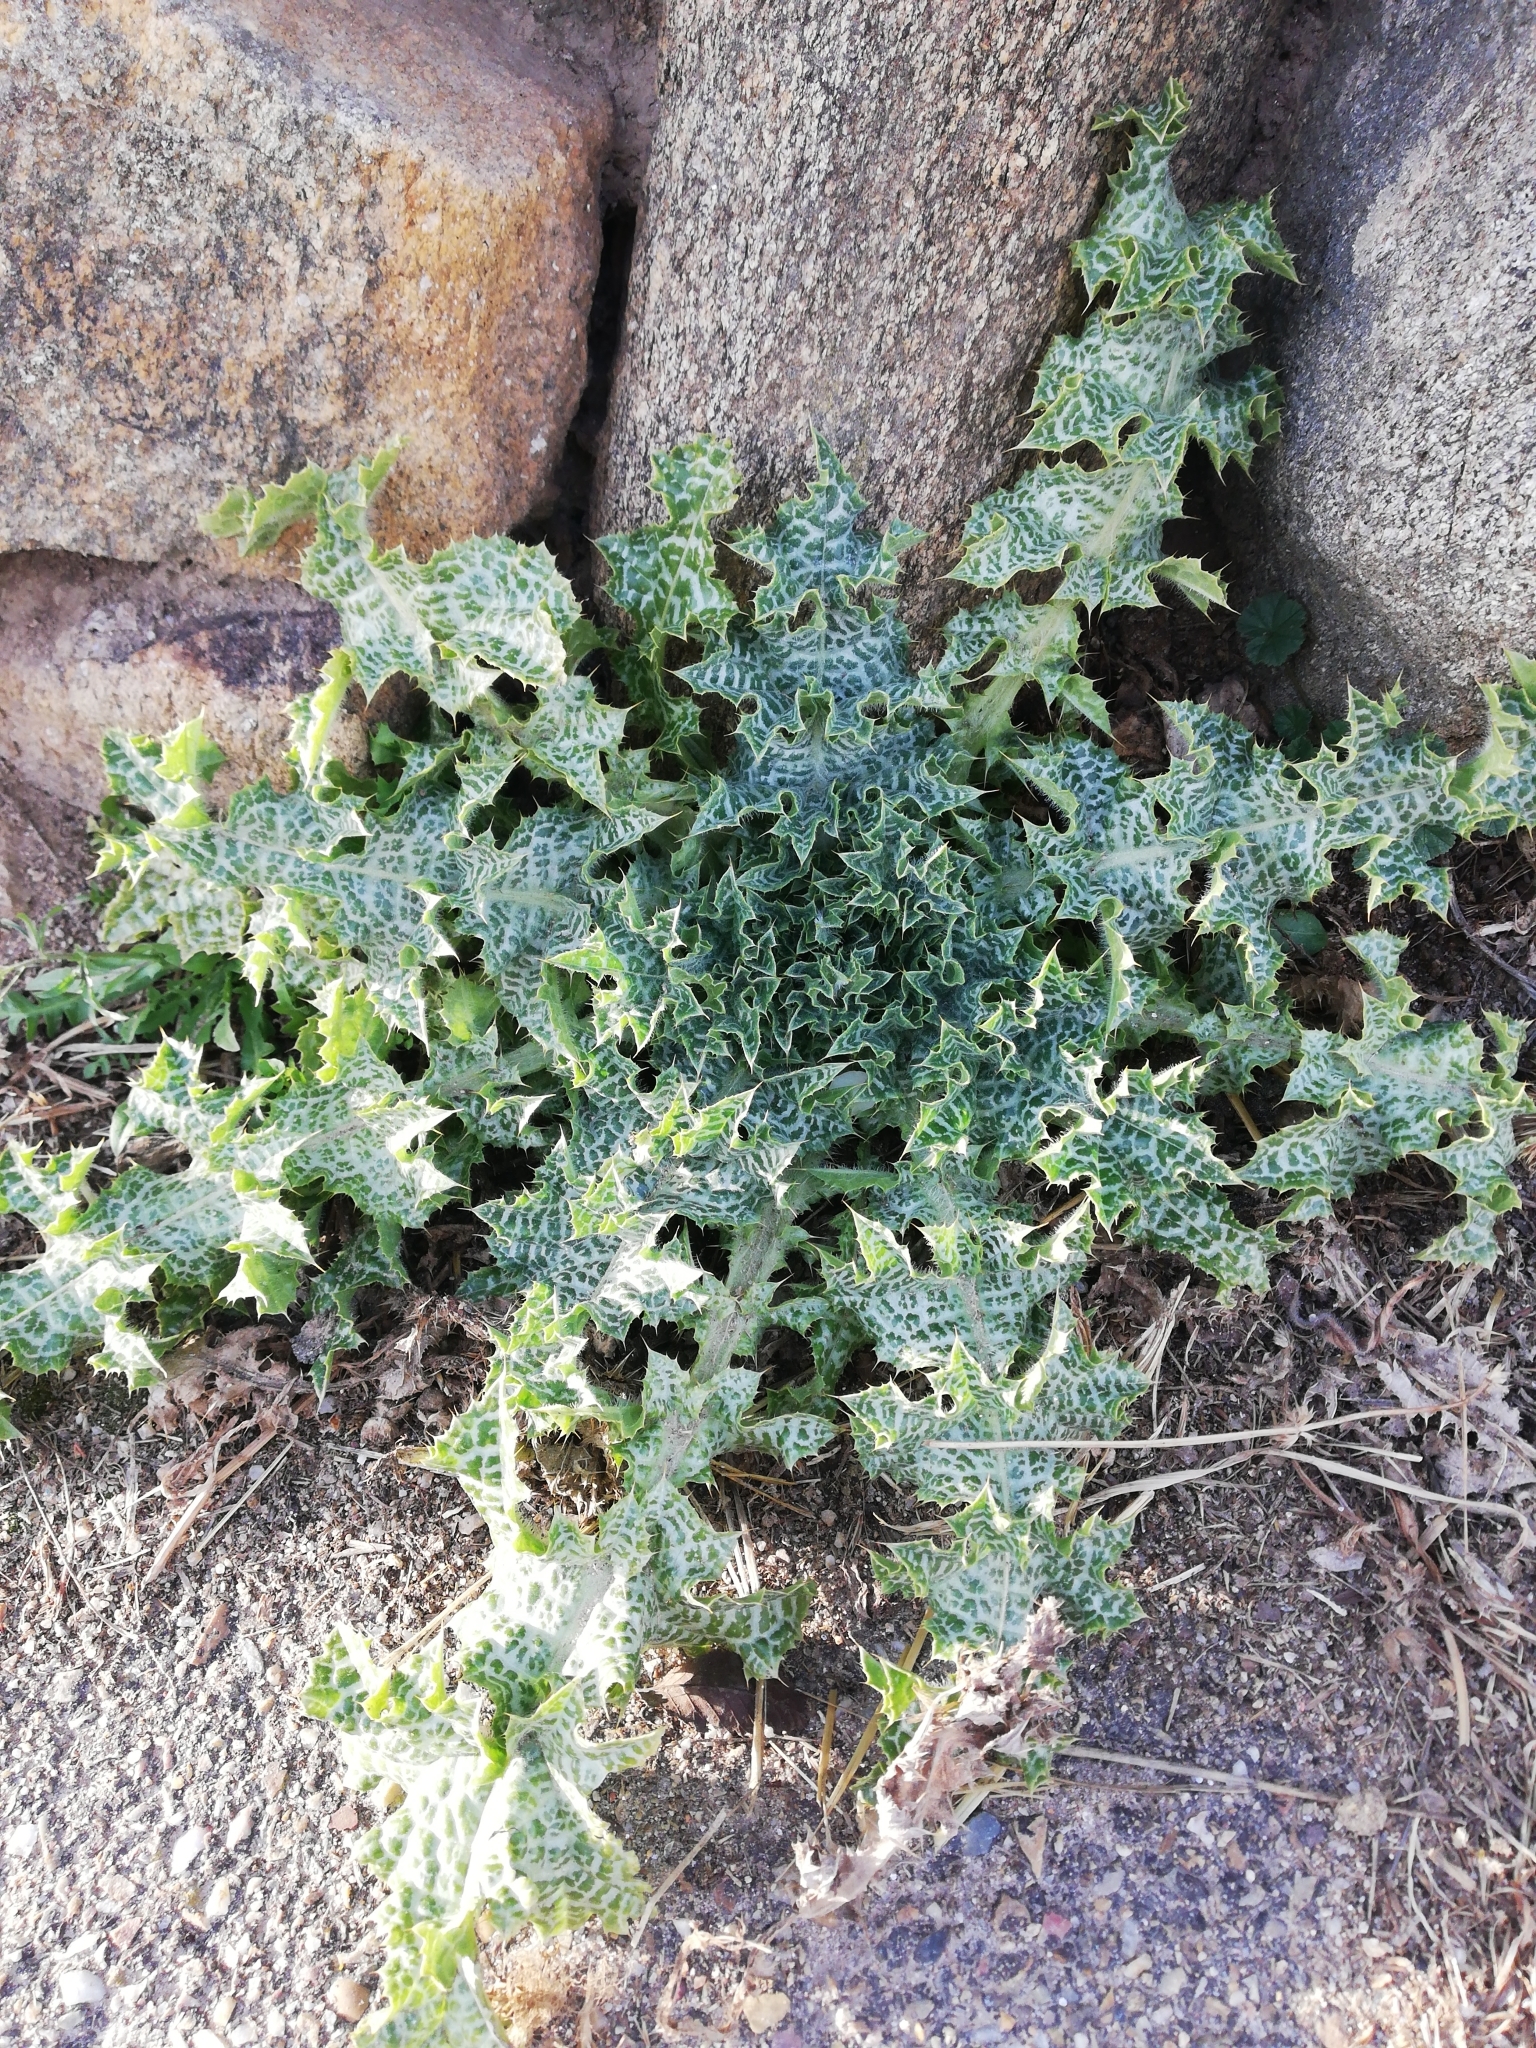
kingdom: Plantae
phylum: Tracheophyta
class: Magnoliopsida
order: Asterales
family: Asteraceae
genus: Silybum
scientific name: Silybum marianum
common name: Milk thistle
